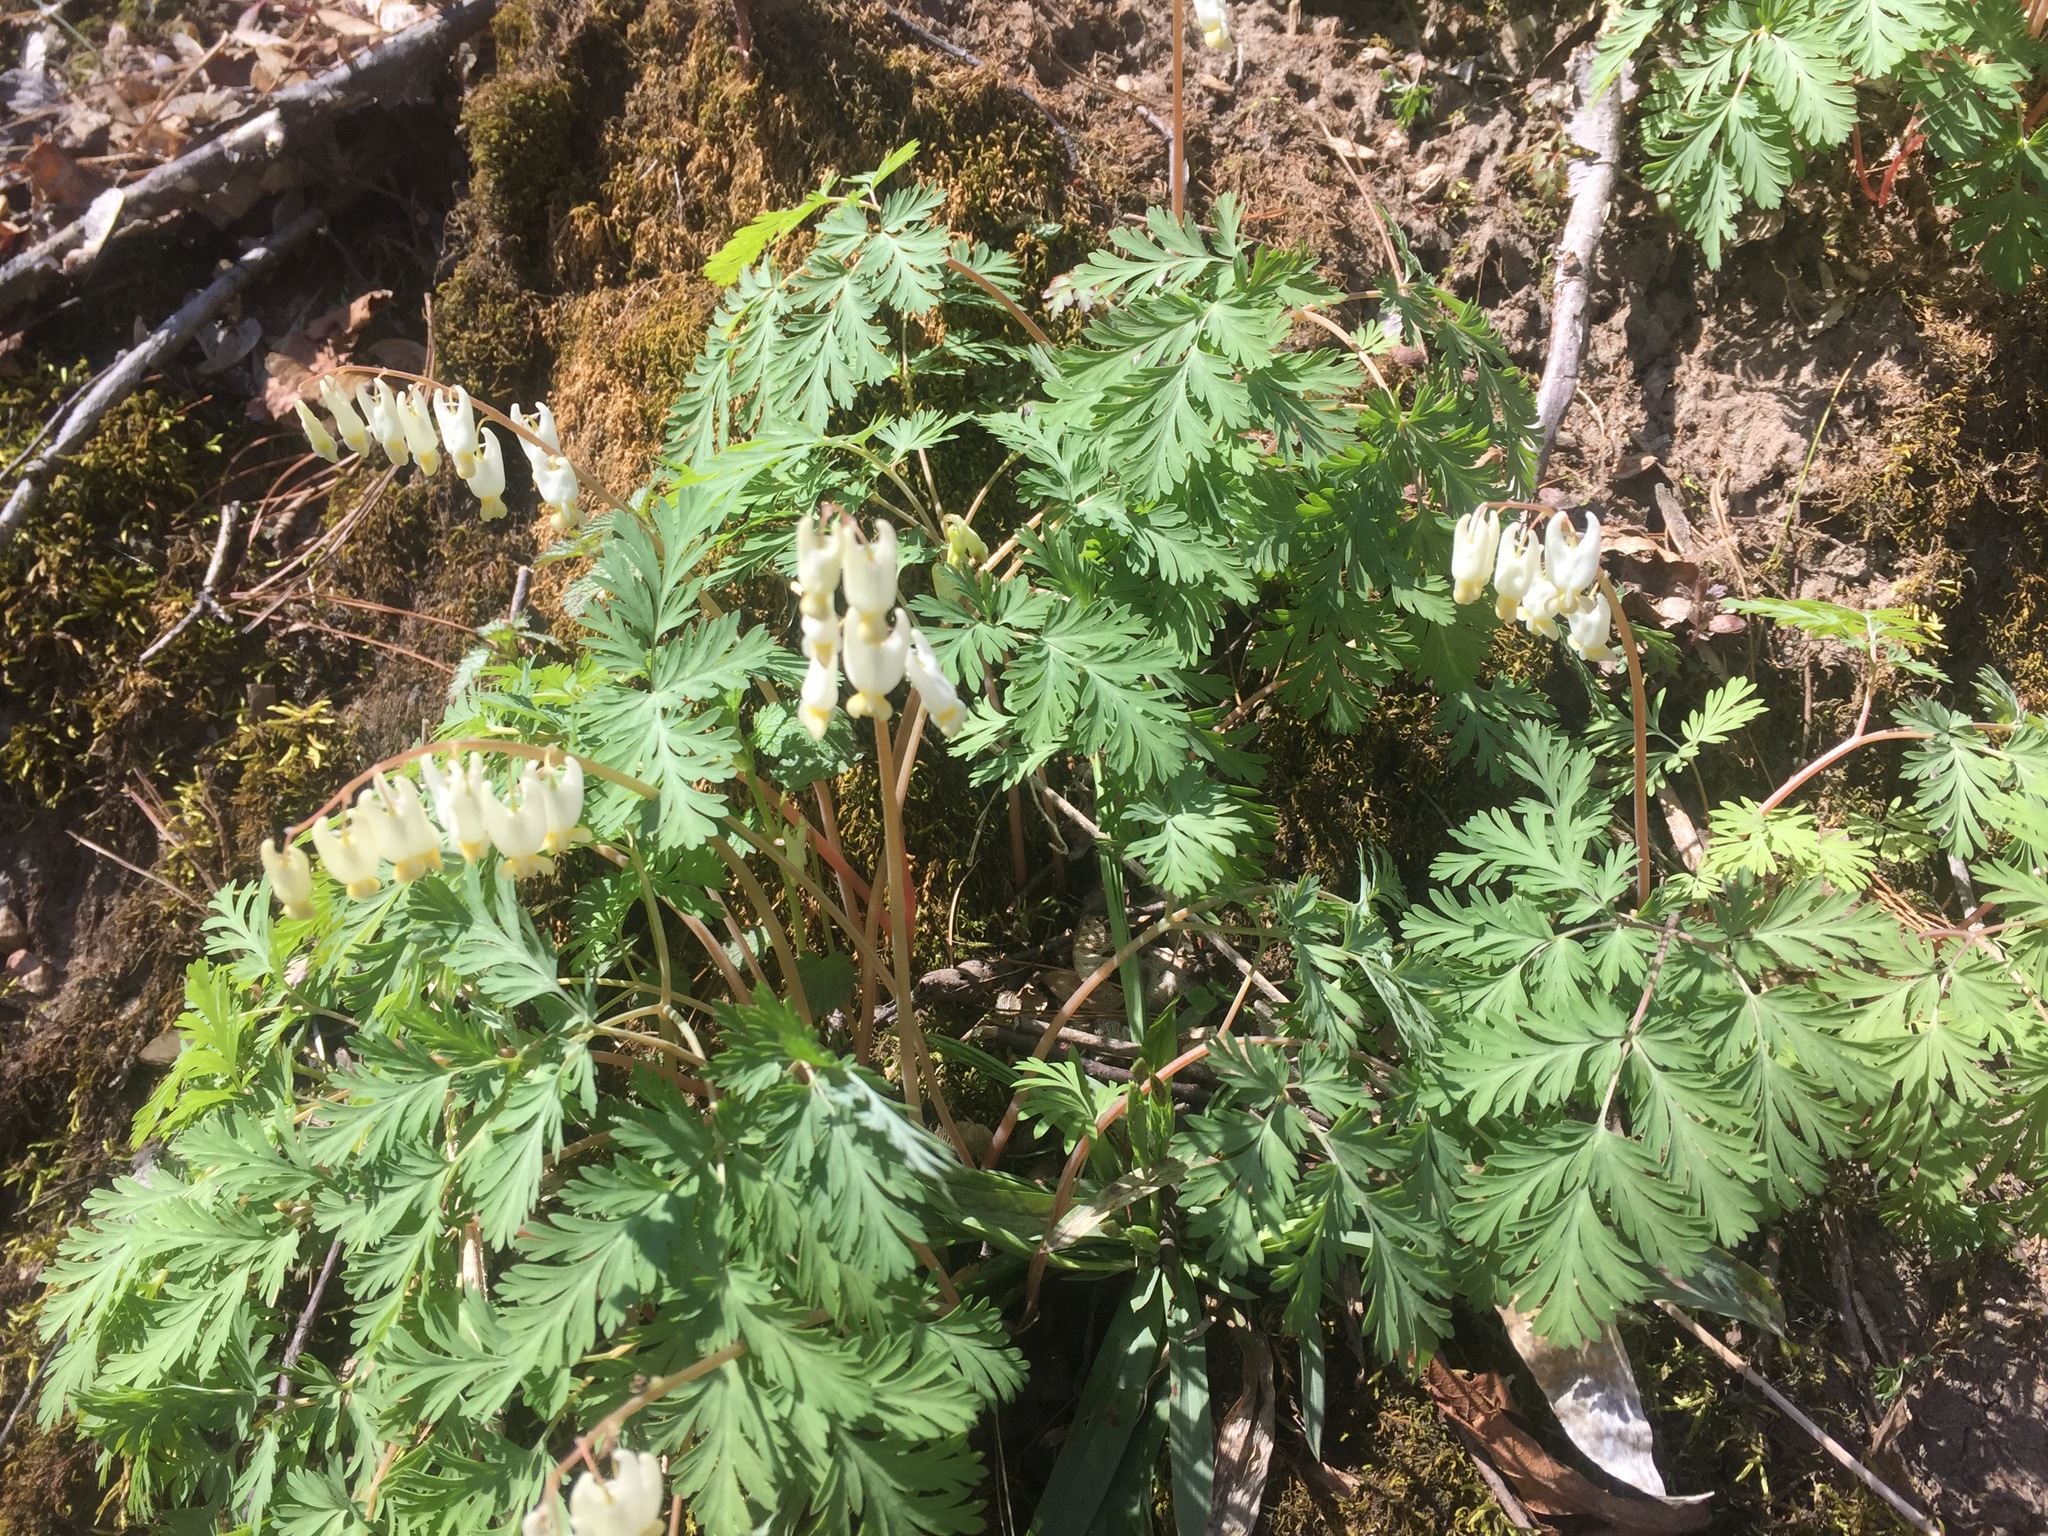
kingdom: Plantae
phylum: Tracheophyta
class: Magnoliopsida
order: Ranunculales
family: Papaveraceae
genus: Dicentra
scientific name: Dicentra cucullaria
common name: Dutchman's breeches
